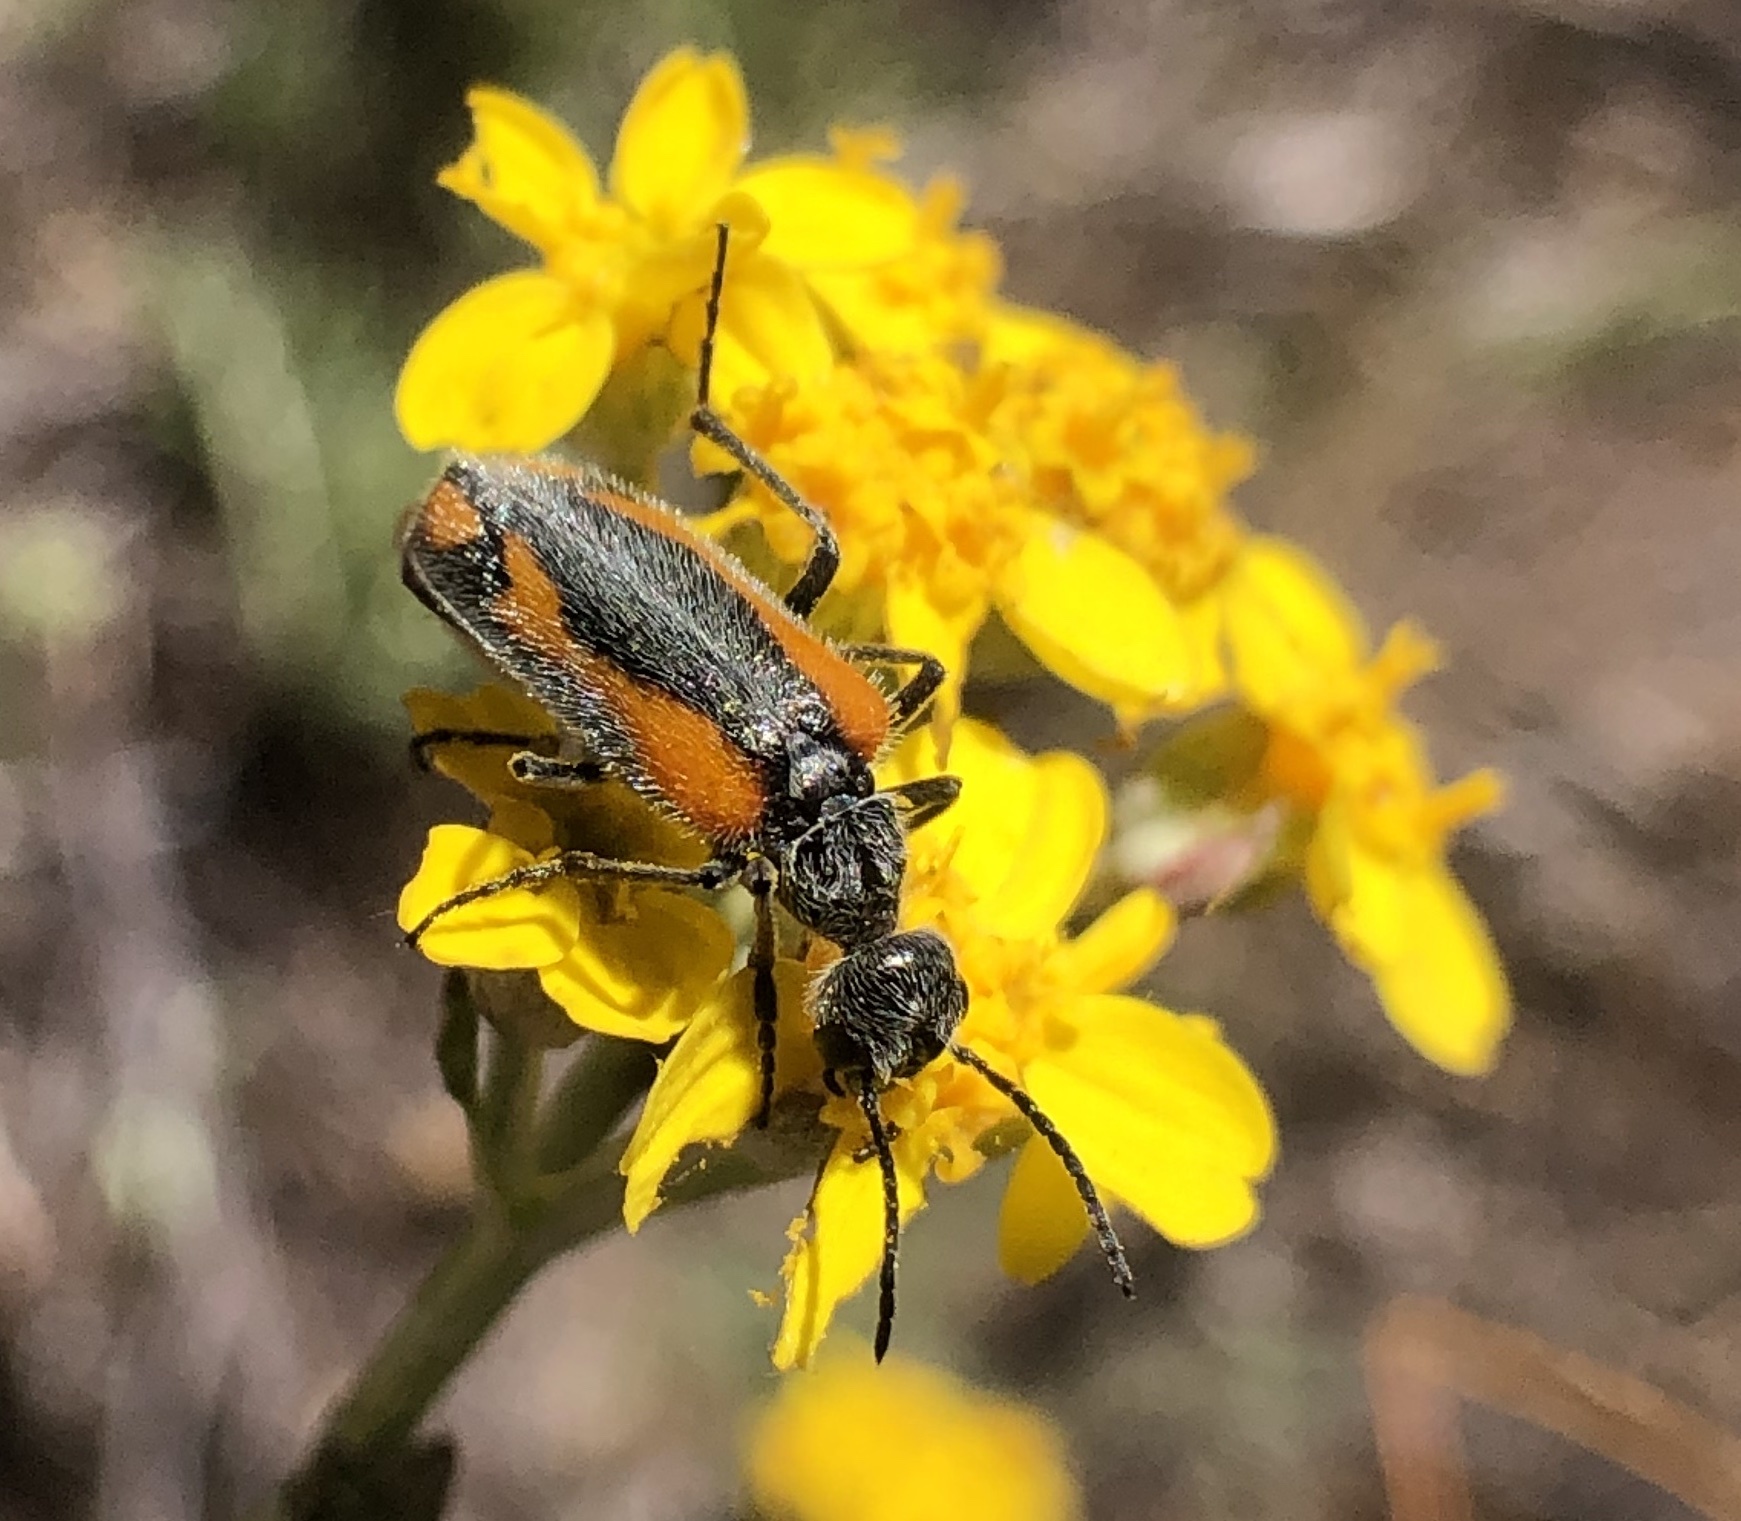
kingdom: Animalia
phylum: Arthropoda
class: Insecta
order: Coleoptera
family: Meloidae
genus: Eupompha
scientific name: Eupompha elegans
